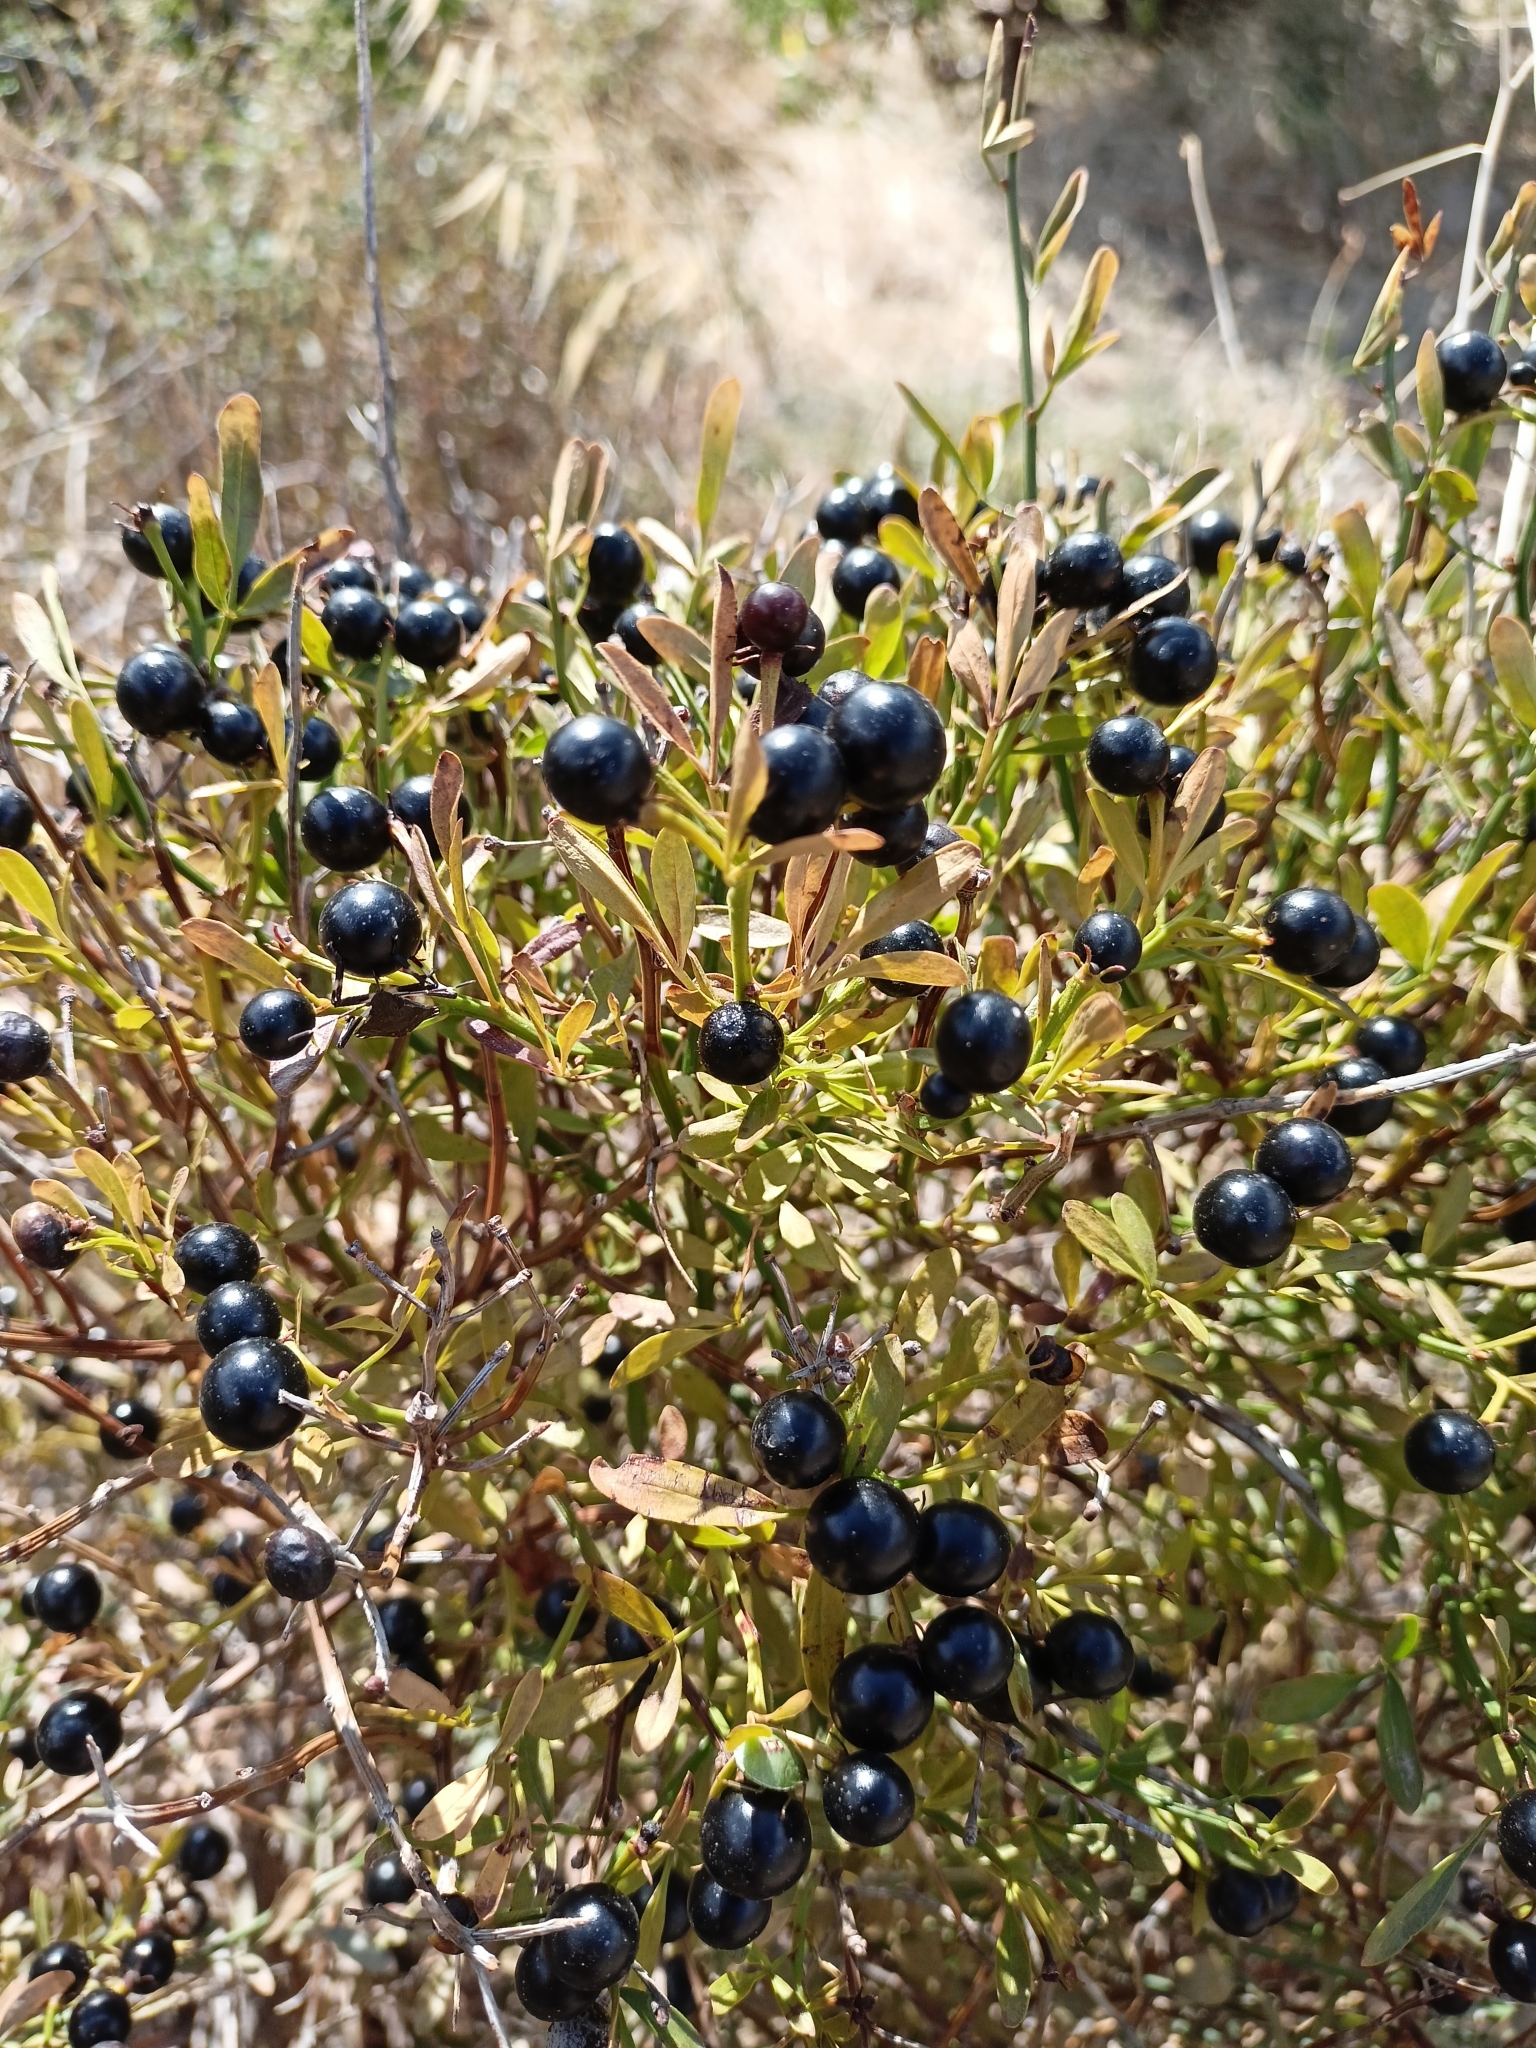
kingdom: Plantae
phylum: Tracheophyta
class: Magnoliopsida
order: Lamiales
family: Oleaceae
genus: Chrysojasminum
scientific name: Chrysojasminum fruticans
